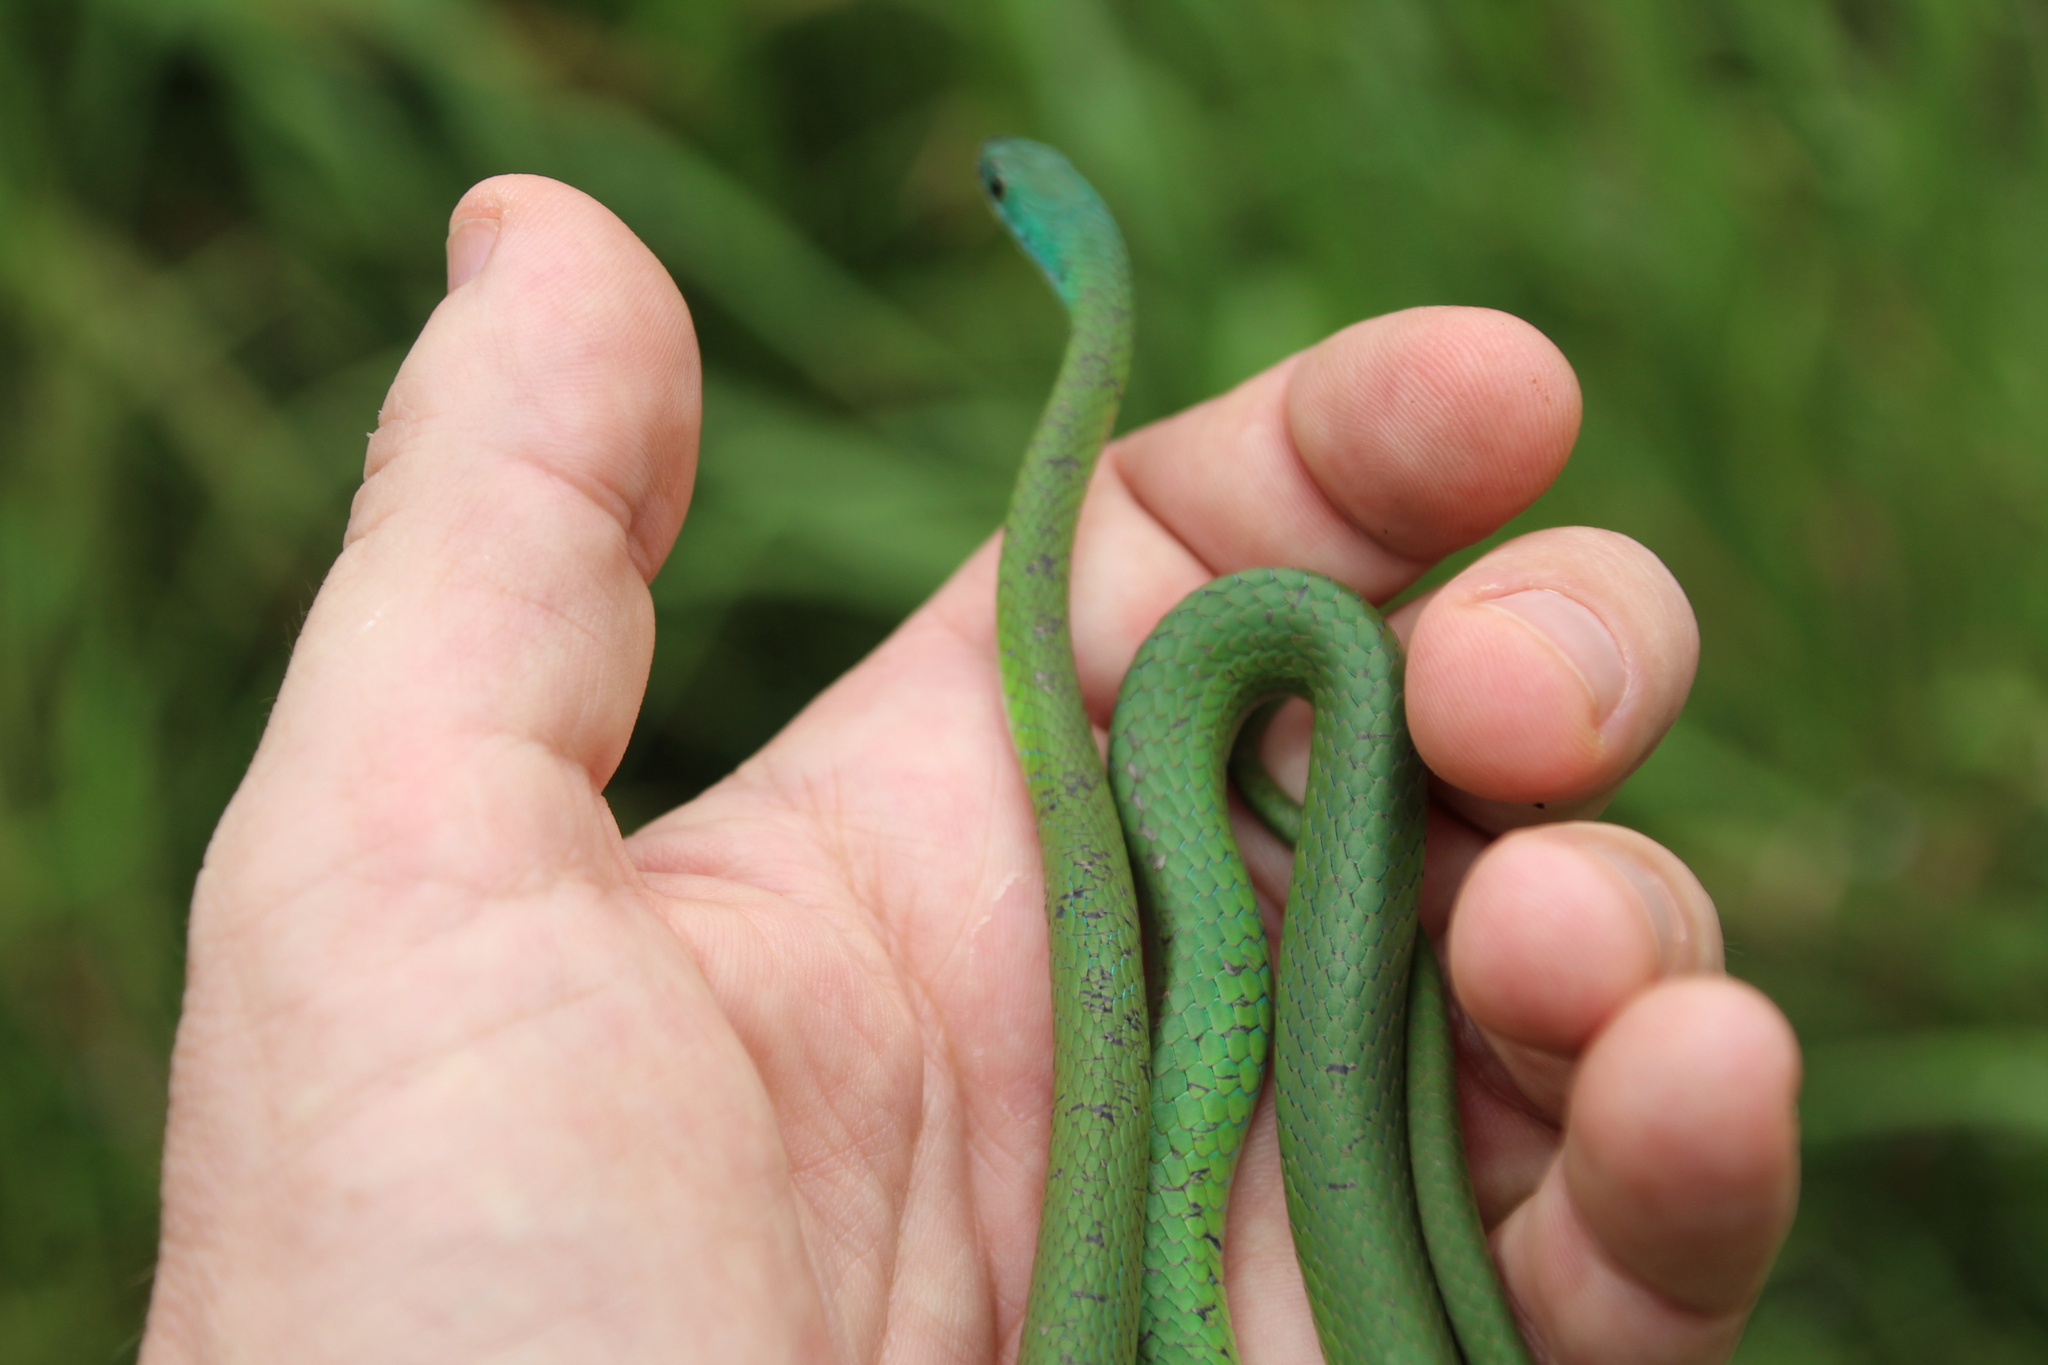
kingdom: Animalia
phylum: Chordata
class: Squamata
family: Colubridae
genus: Philothamnus
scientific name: Philothamnus hoplogaster
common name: Green water snake
